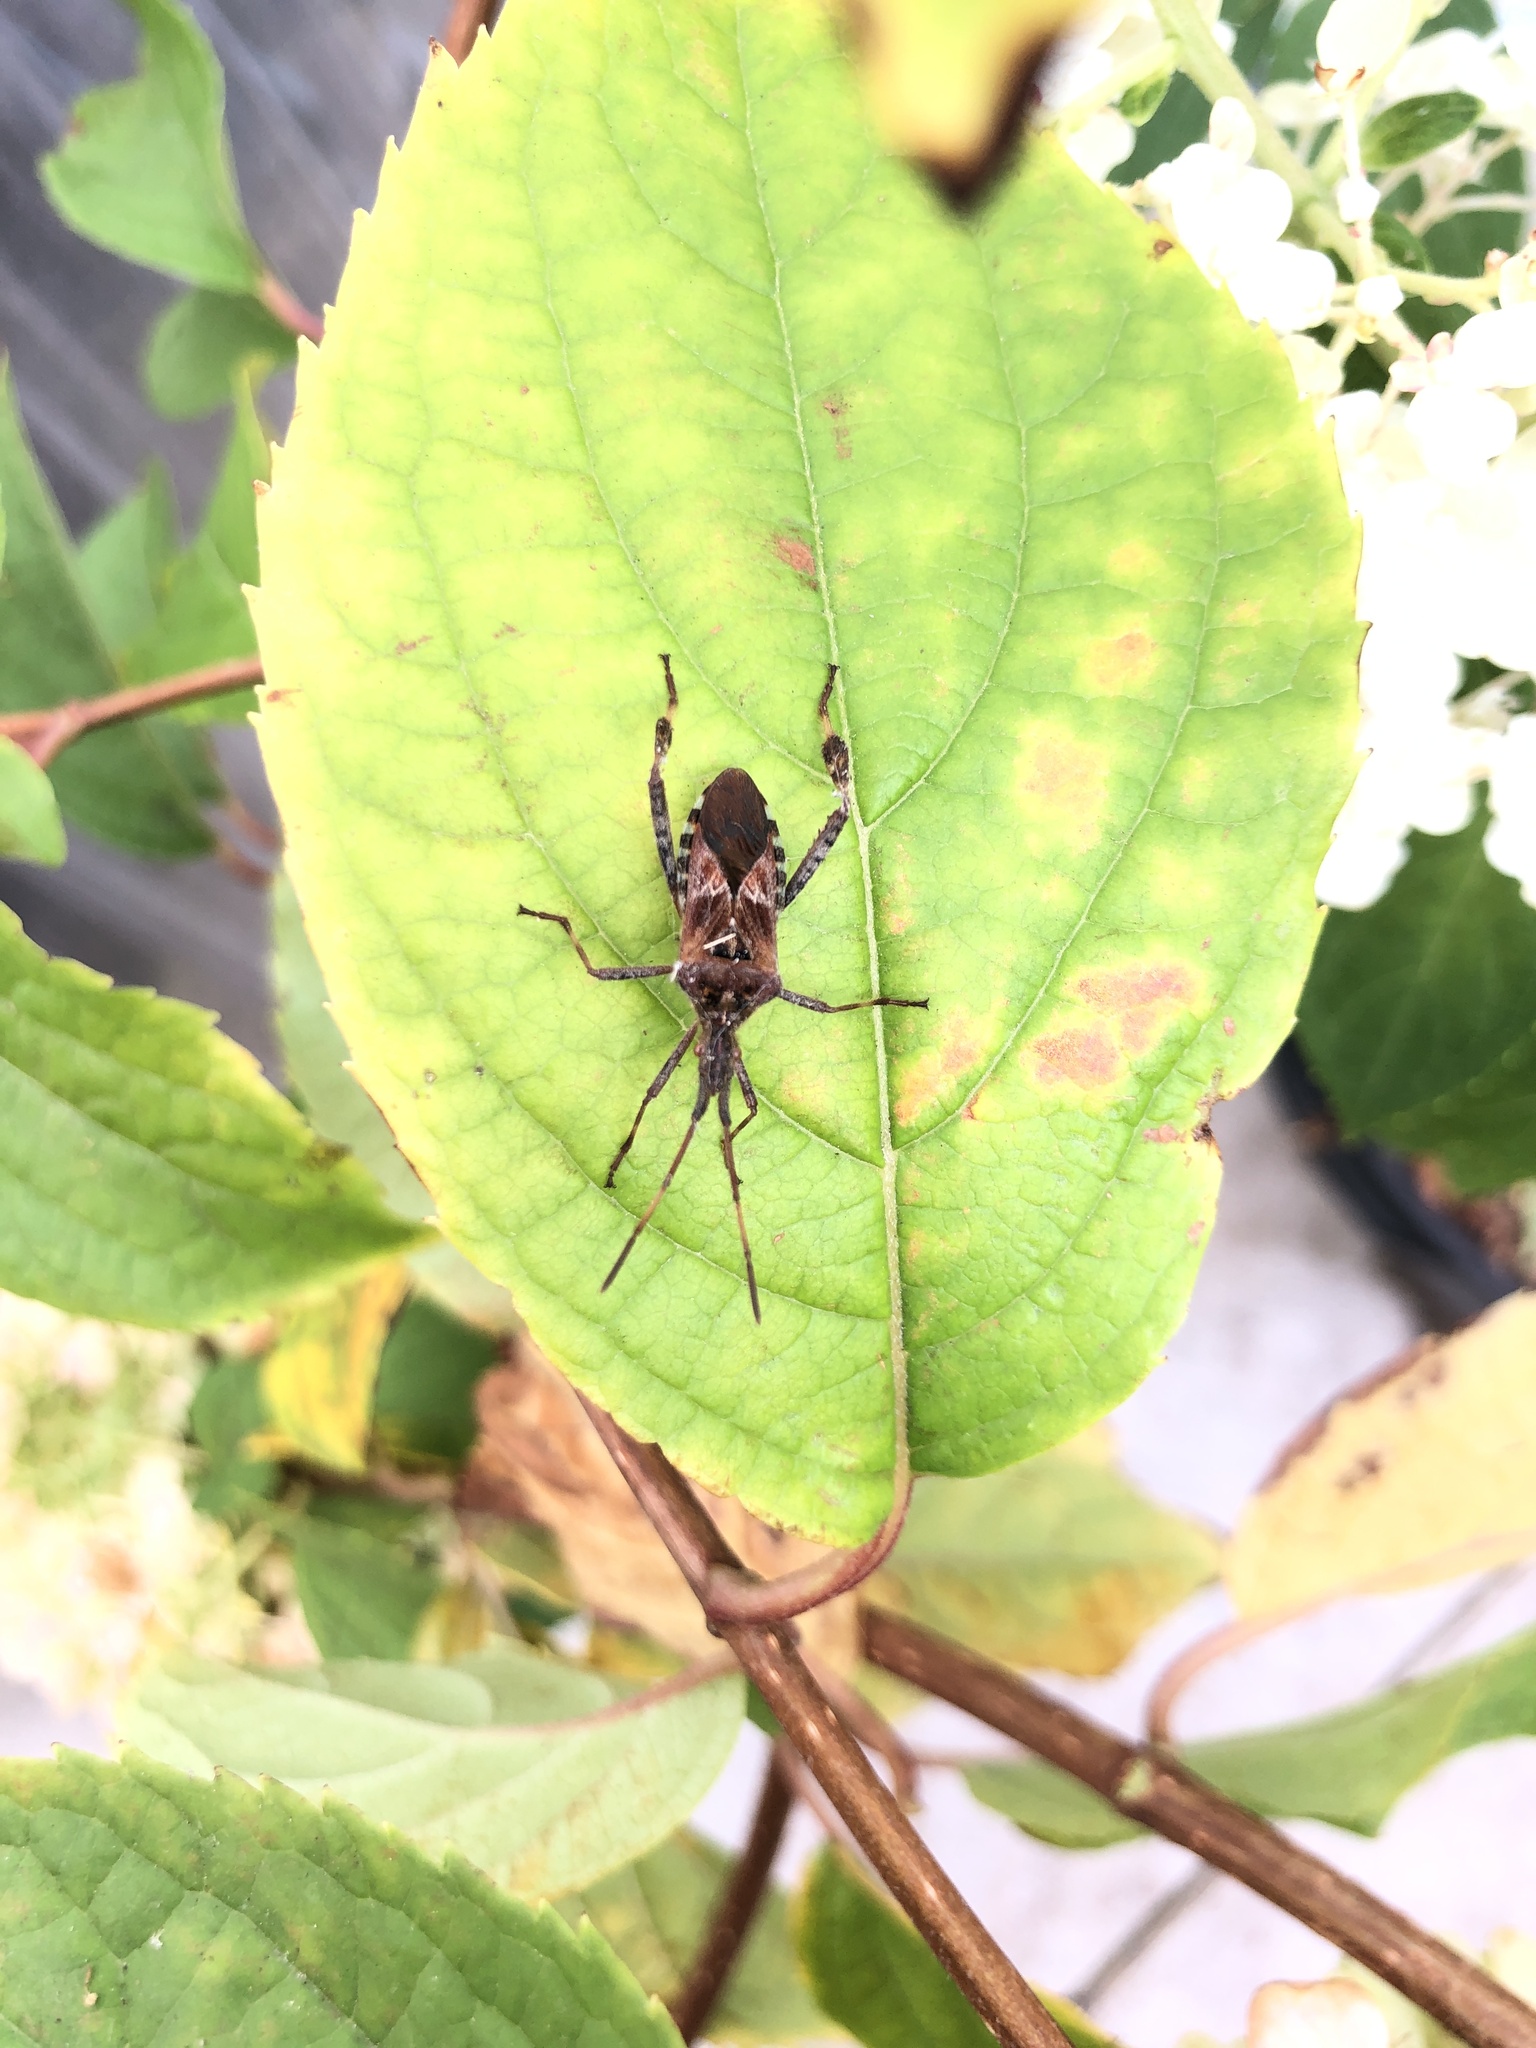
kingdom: Animalia
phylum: Arthropoda
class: Insecta
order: Hemiptera
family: Coreidae
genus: Leptoglossus
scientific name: Leptoglossus occidentalis
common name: Western conifer-seed bug
